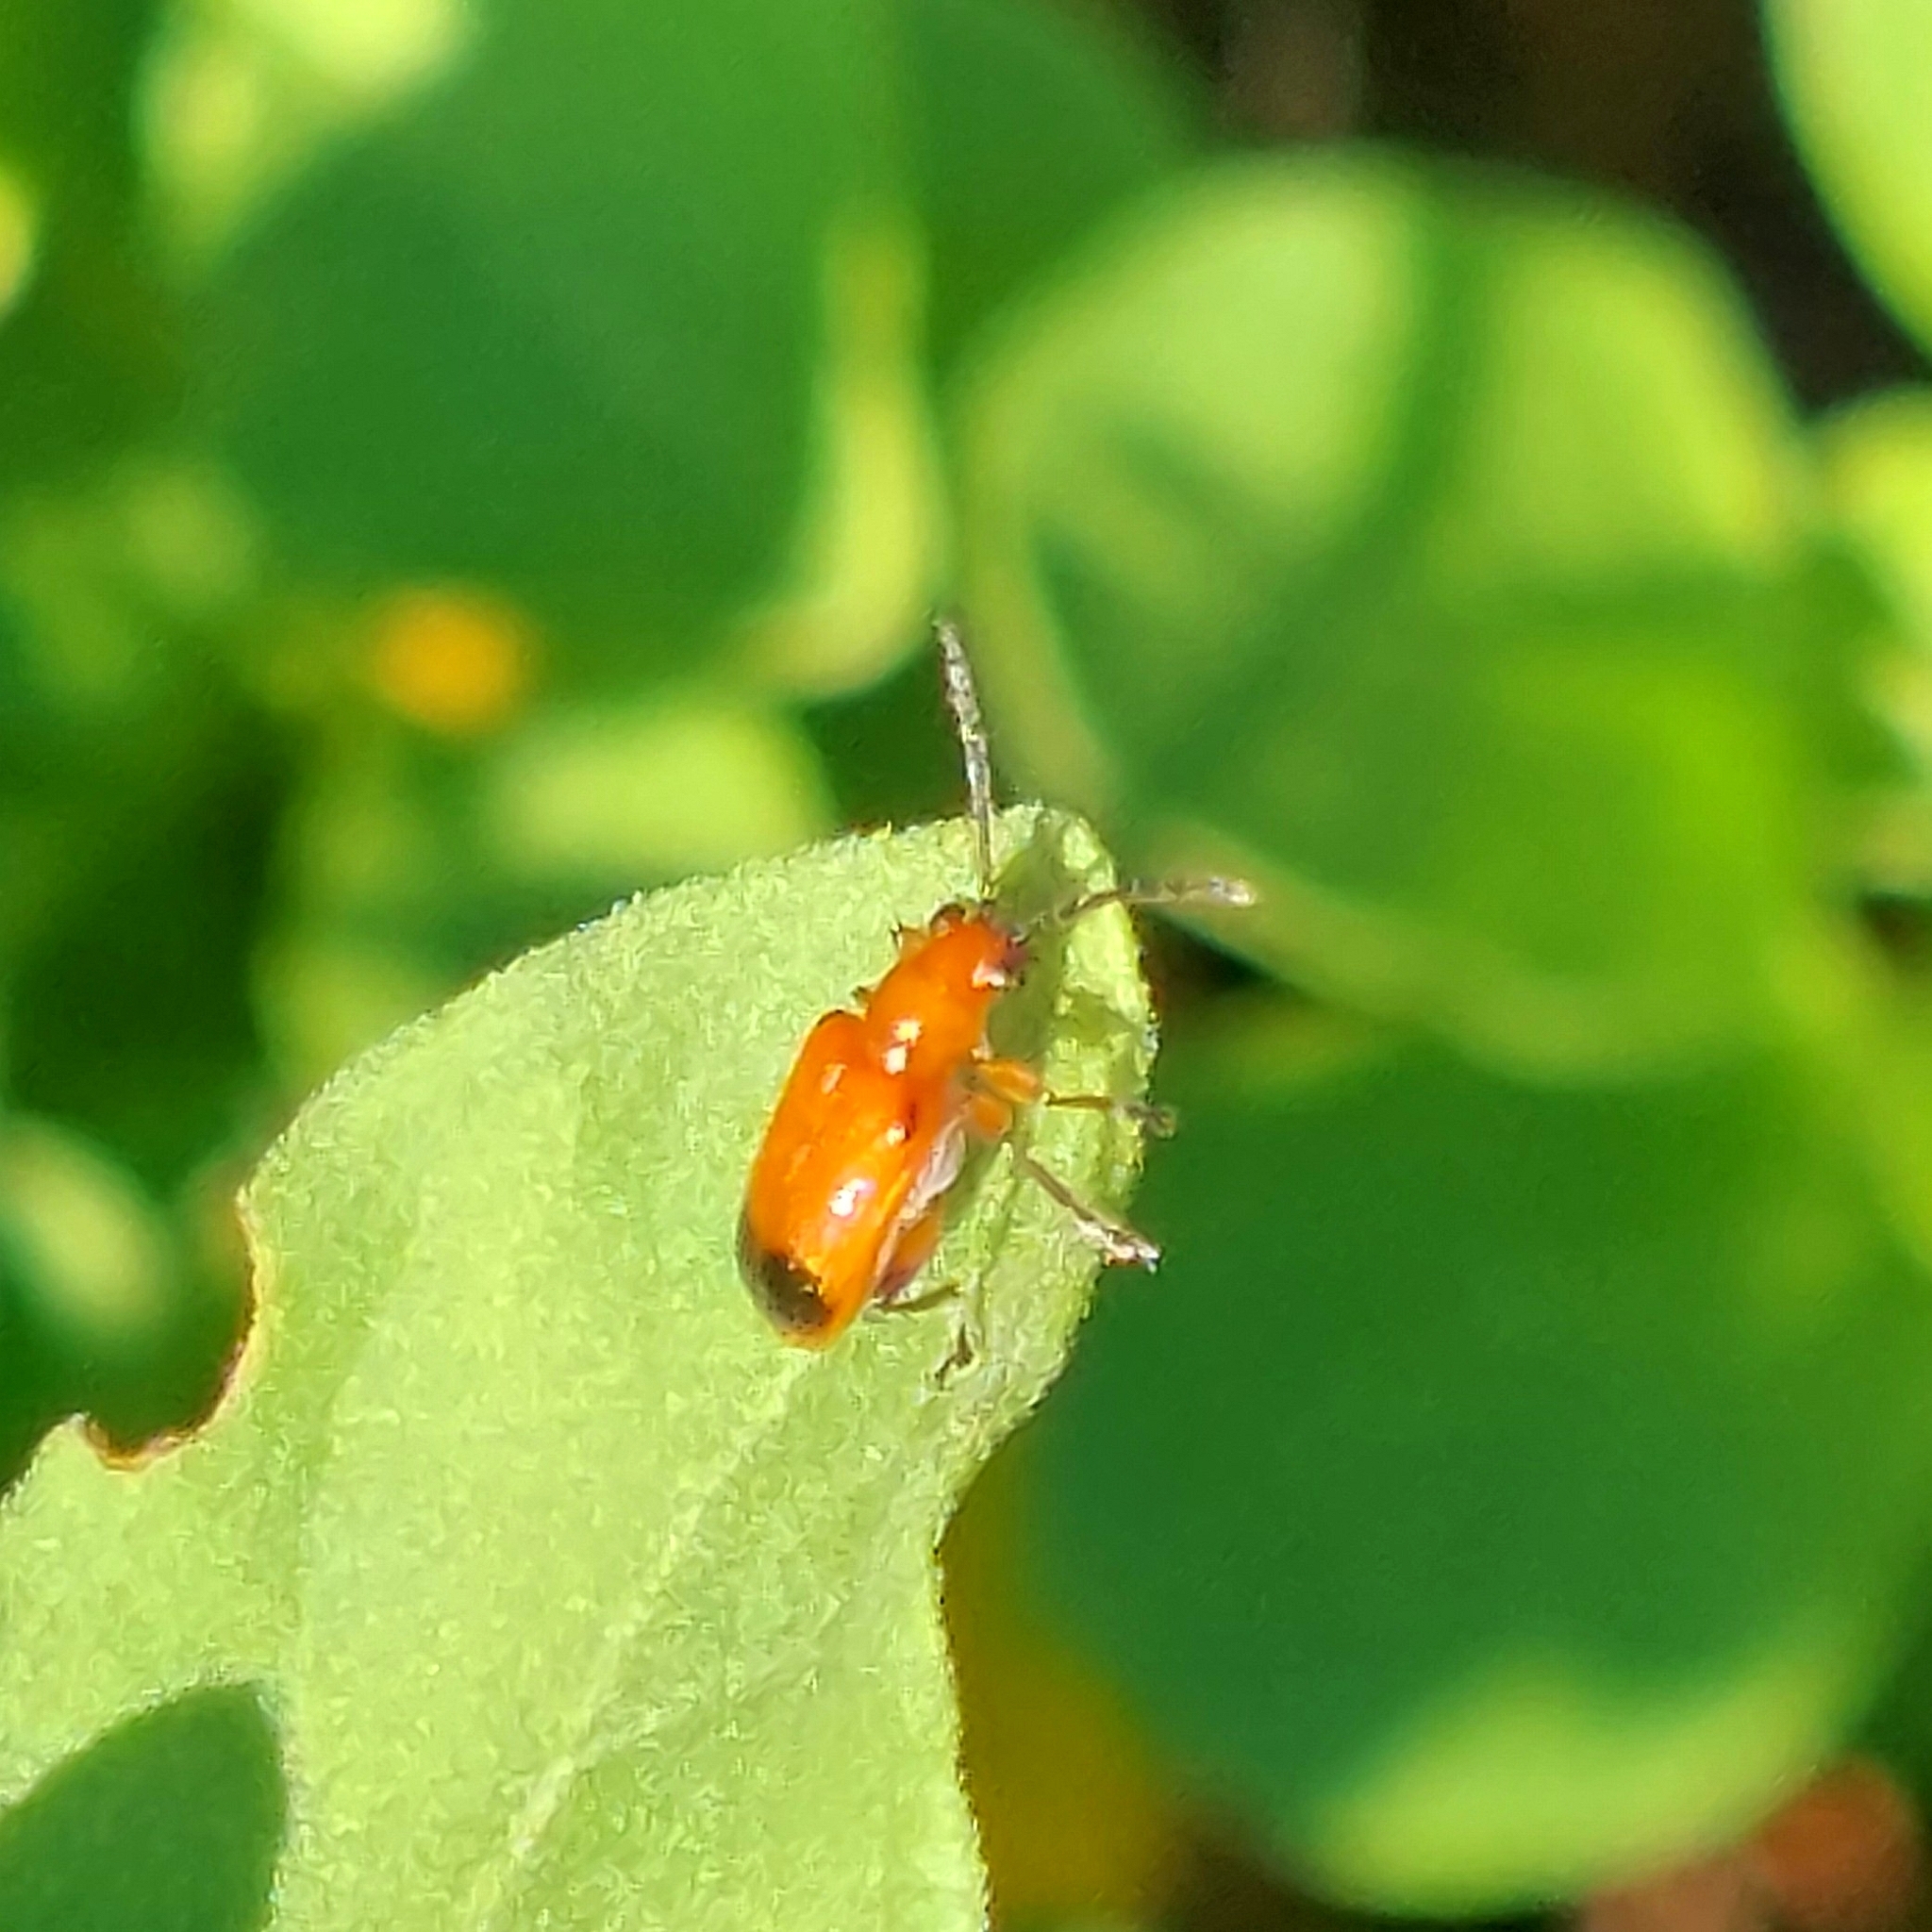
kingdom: Animalia
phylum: Arthropoda
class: Insecta
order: Coleoptera
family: Chrysomelidae
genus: Neolema
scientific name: Neolema dorsalis
